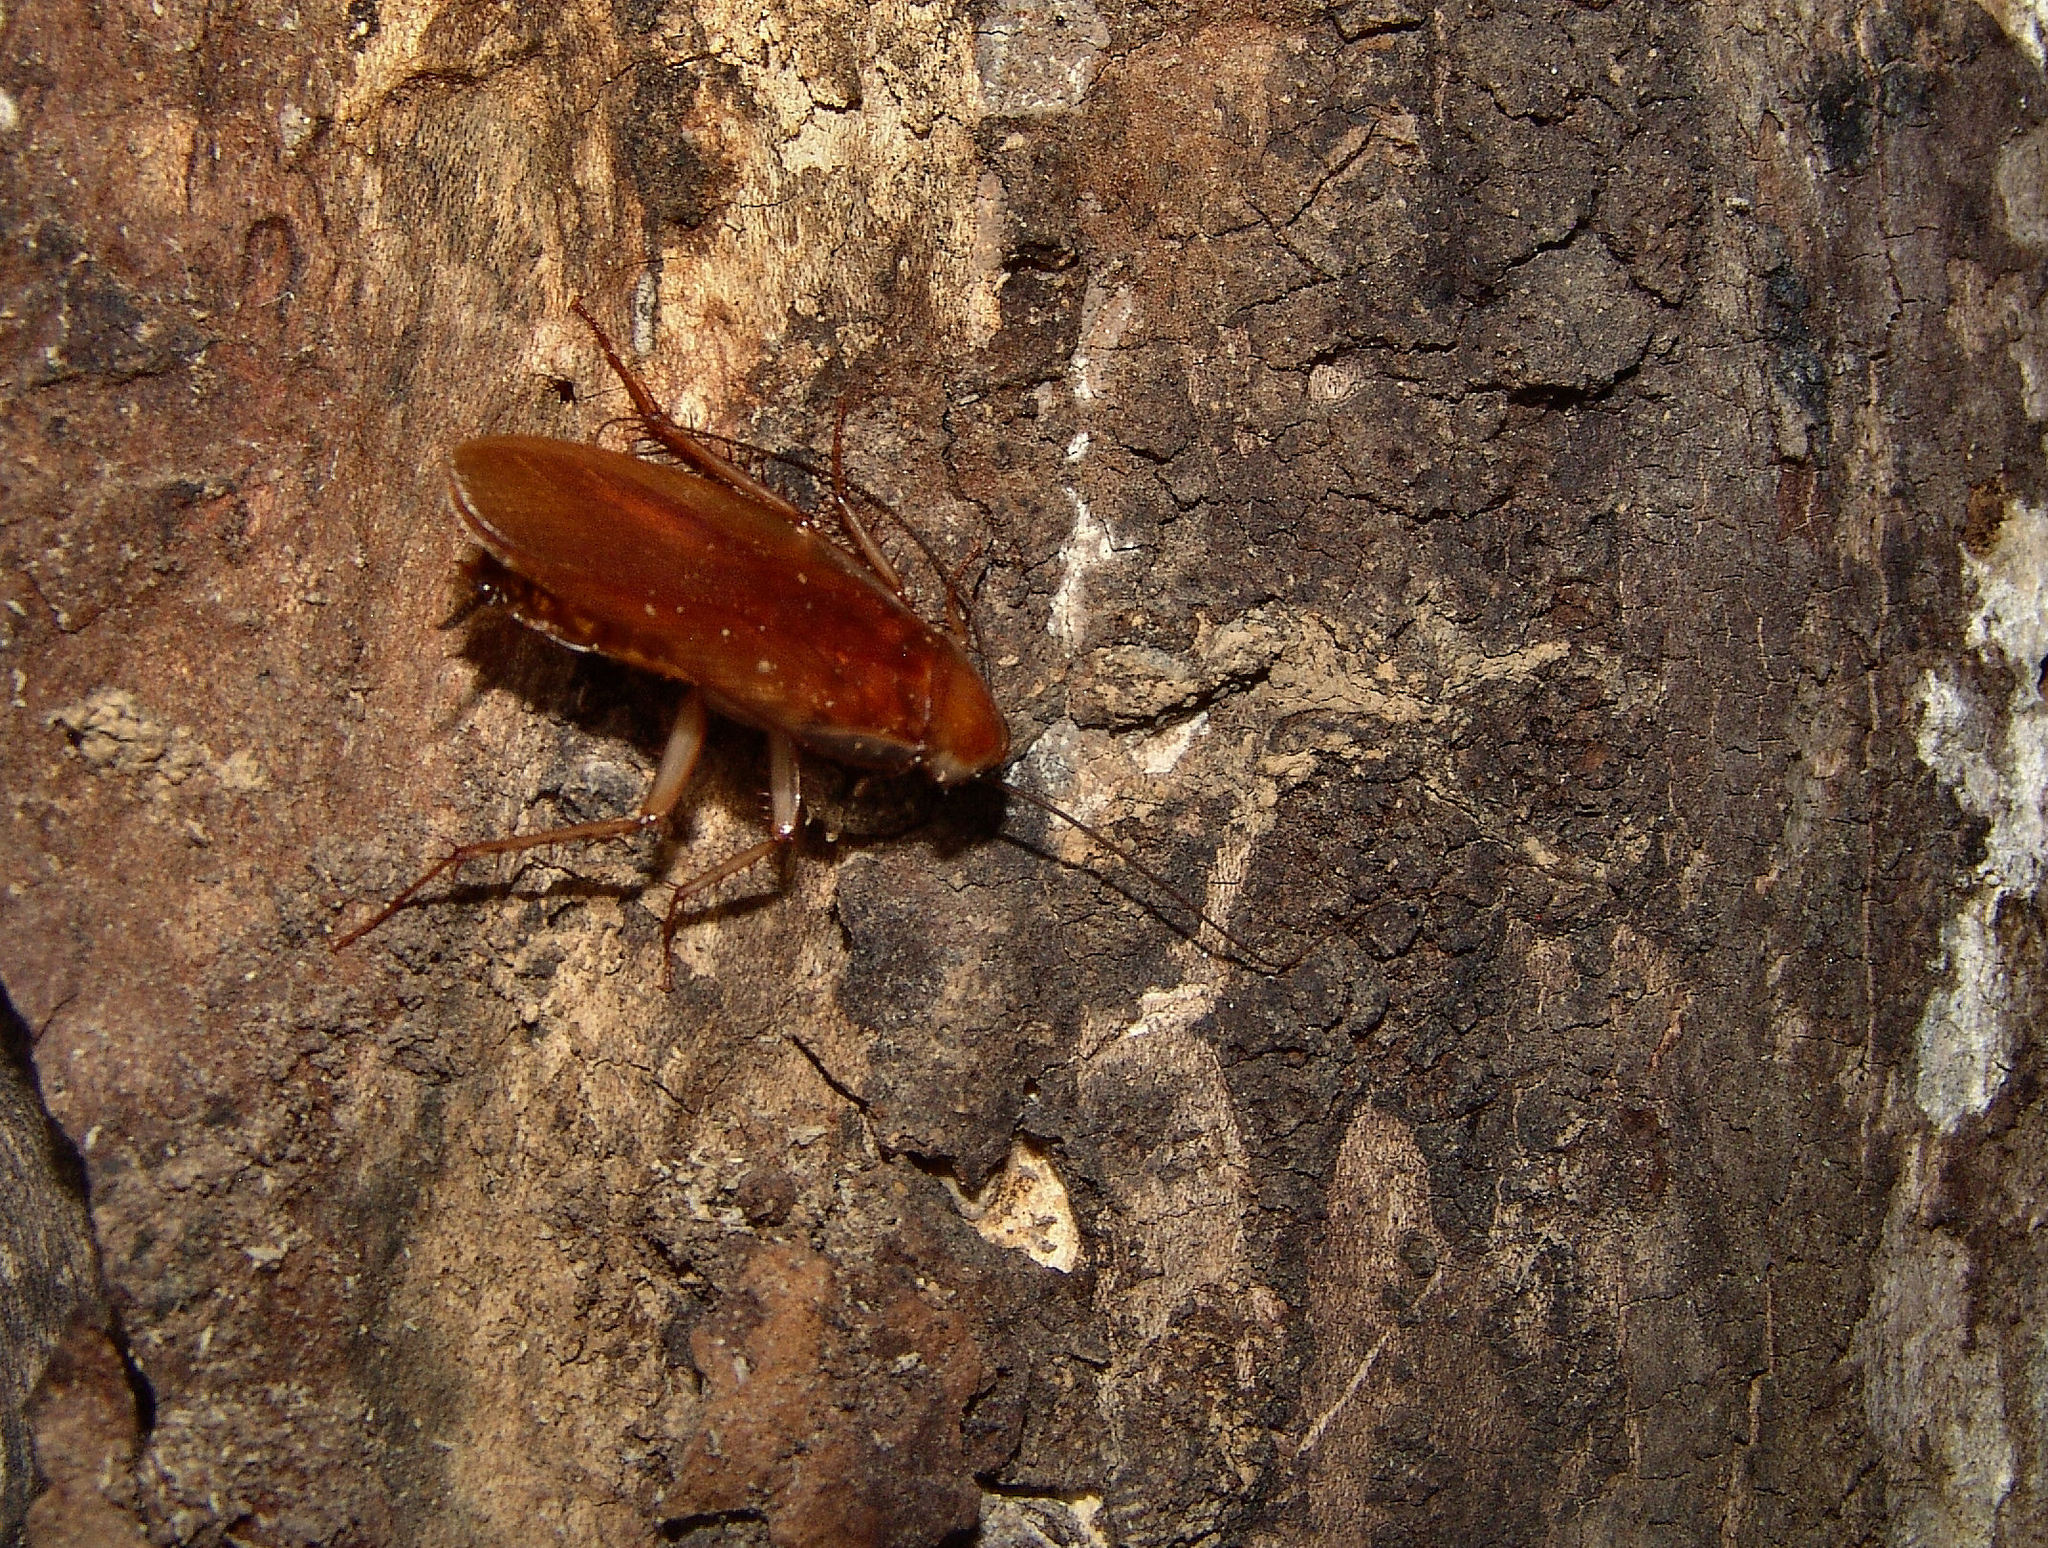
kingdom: Animalia
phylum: Arthropoda
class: Insecta
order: Blattodea
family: Blattidae
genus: Periplaneta
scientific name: Periplaneta lateralis
